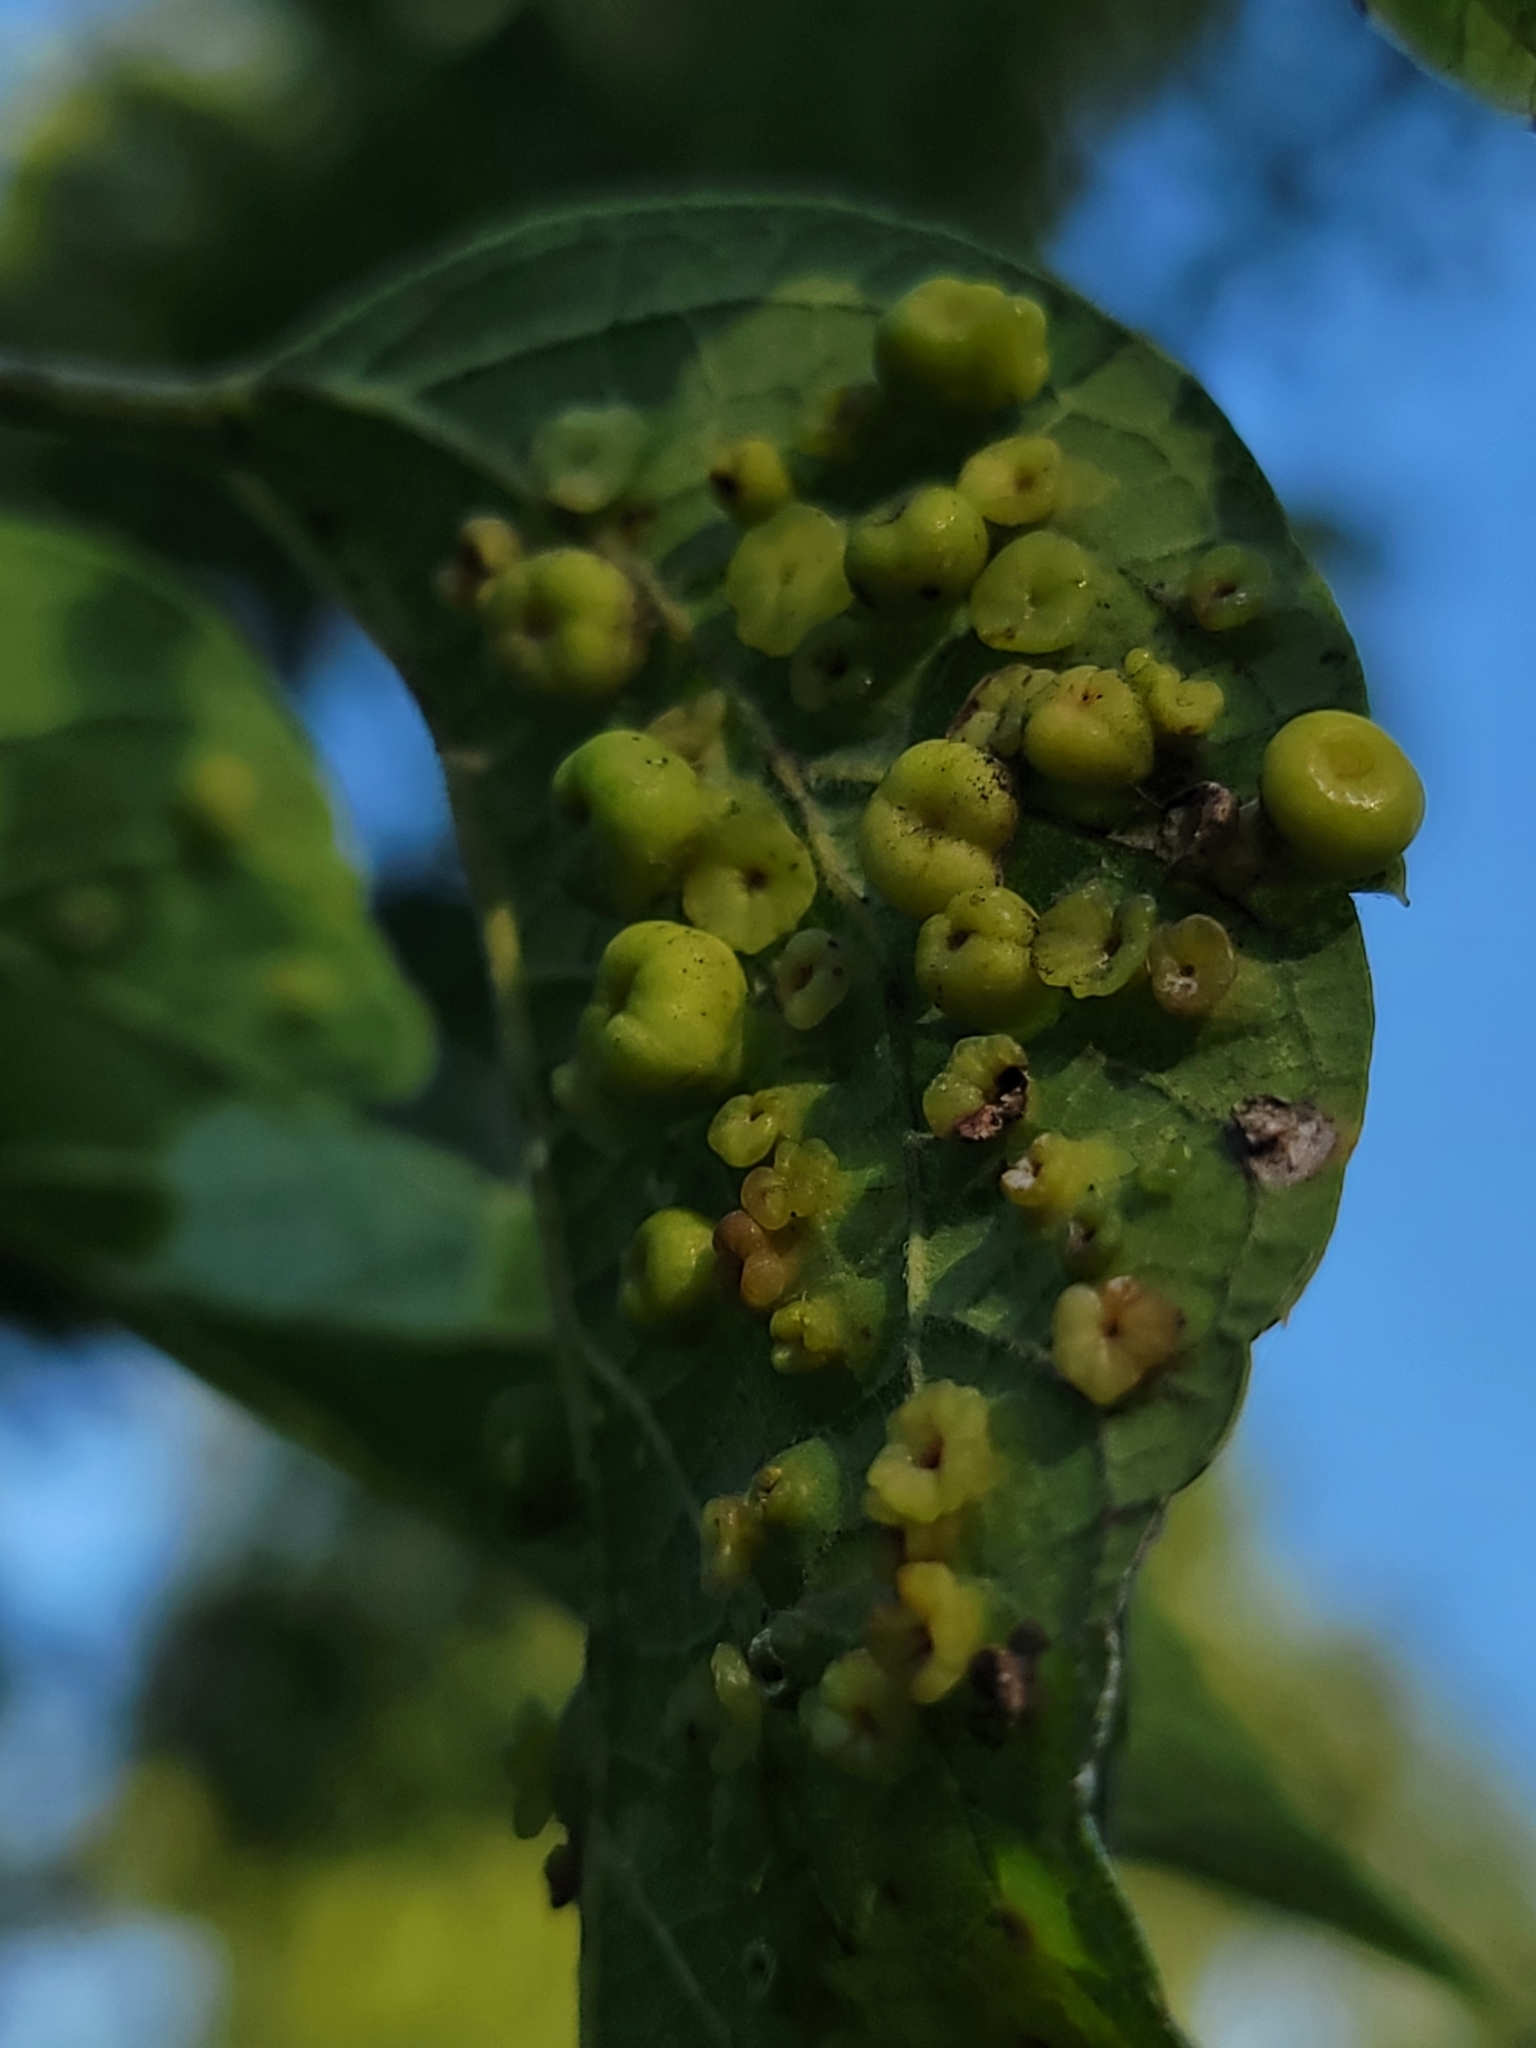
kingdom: Animalia
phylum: Arthropoda
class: Insecta
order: Hemiptera
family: Aphalaridae
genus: Pachypsylla
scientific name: Pachypsylla celtidismamma
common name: Hackberry nipplegall psyllid
